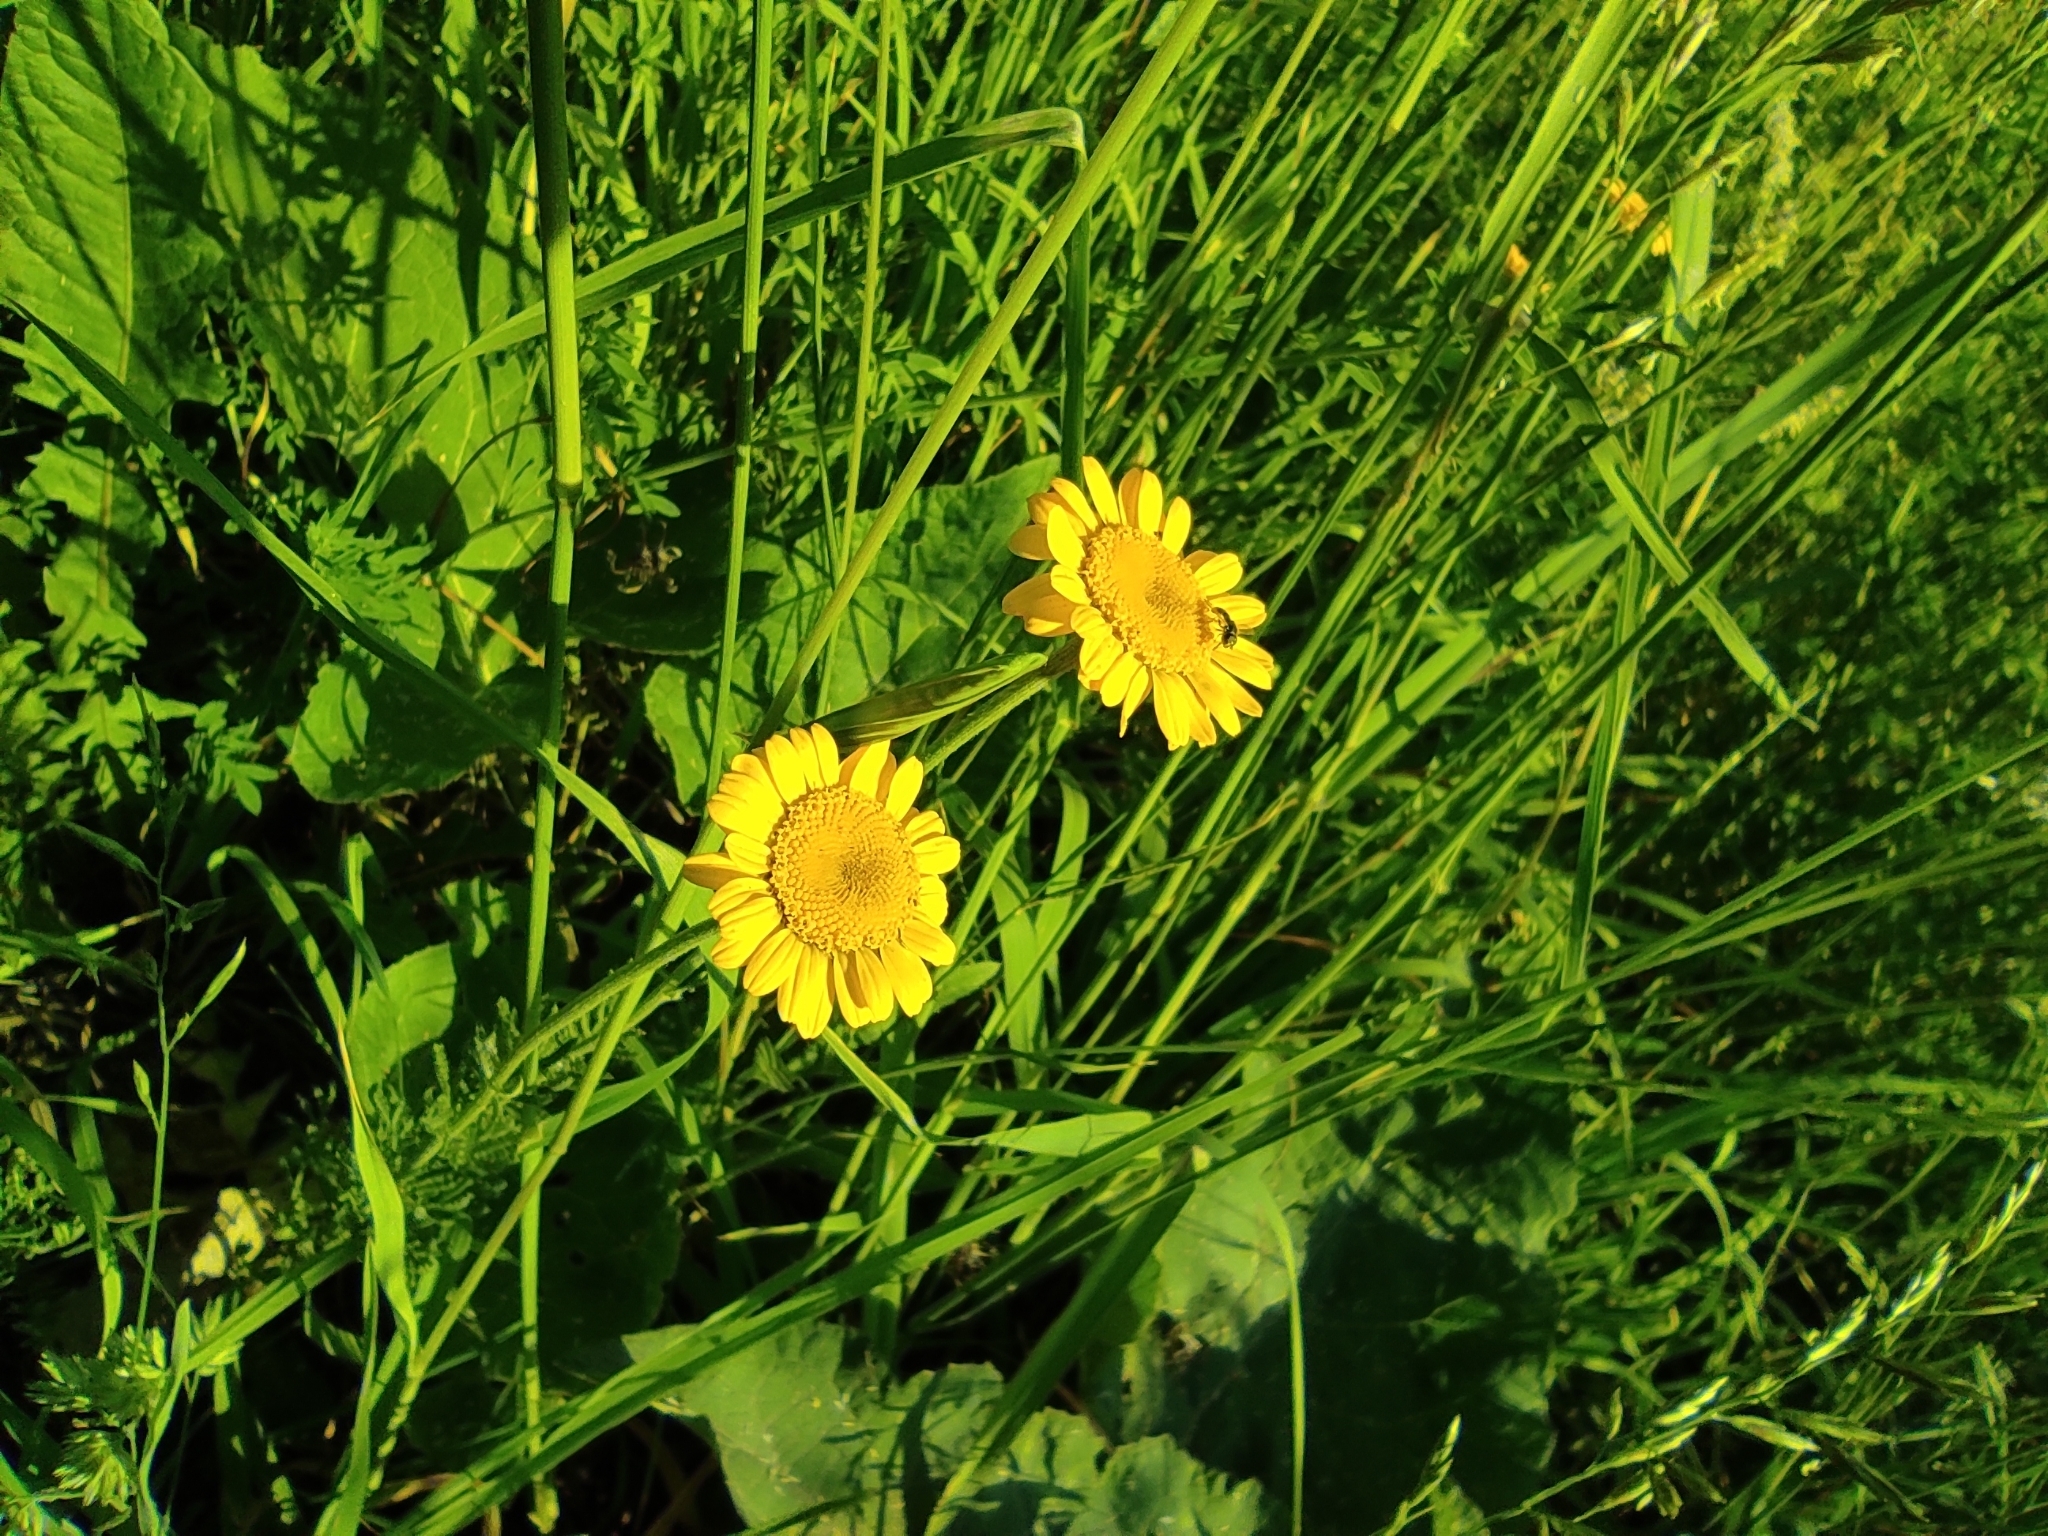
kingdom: Plantae
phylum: Tracheophyta
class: Magnoliopsida
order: Asterales
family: Asteraceae
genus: Cota
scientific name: Cota tinctoria
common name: Golden chamomile
